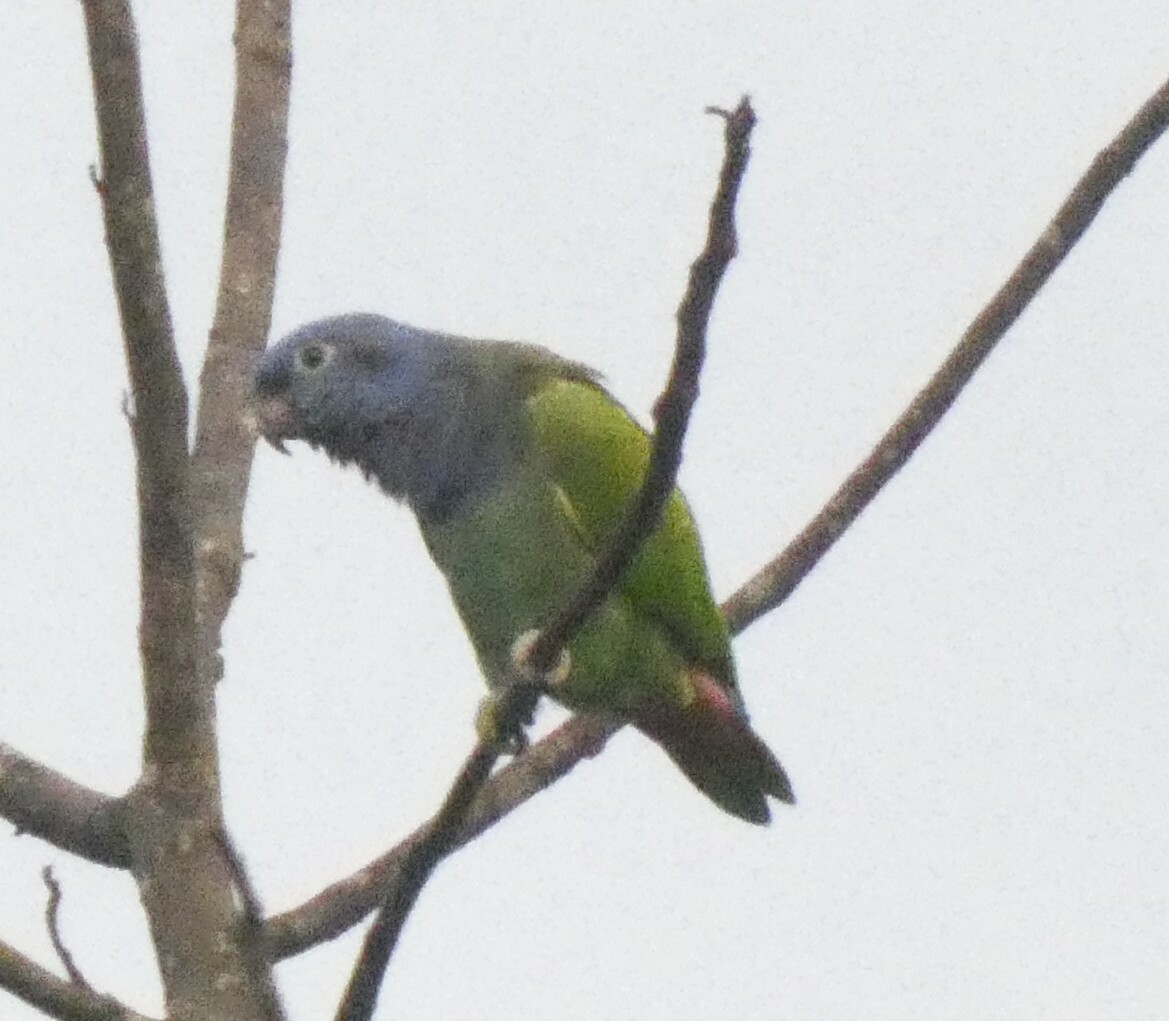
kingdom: Animalia
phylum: Chordata
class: Aves
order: Psittaciformes
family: Psittacidae
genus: Pionus
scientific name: Pionus menstruus
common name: Blue-headed parrot
